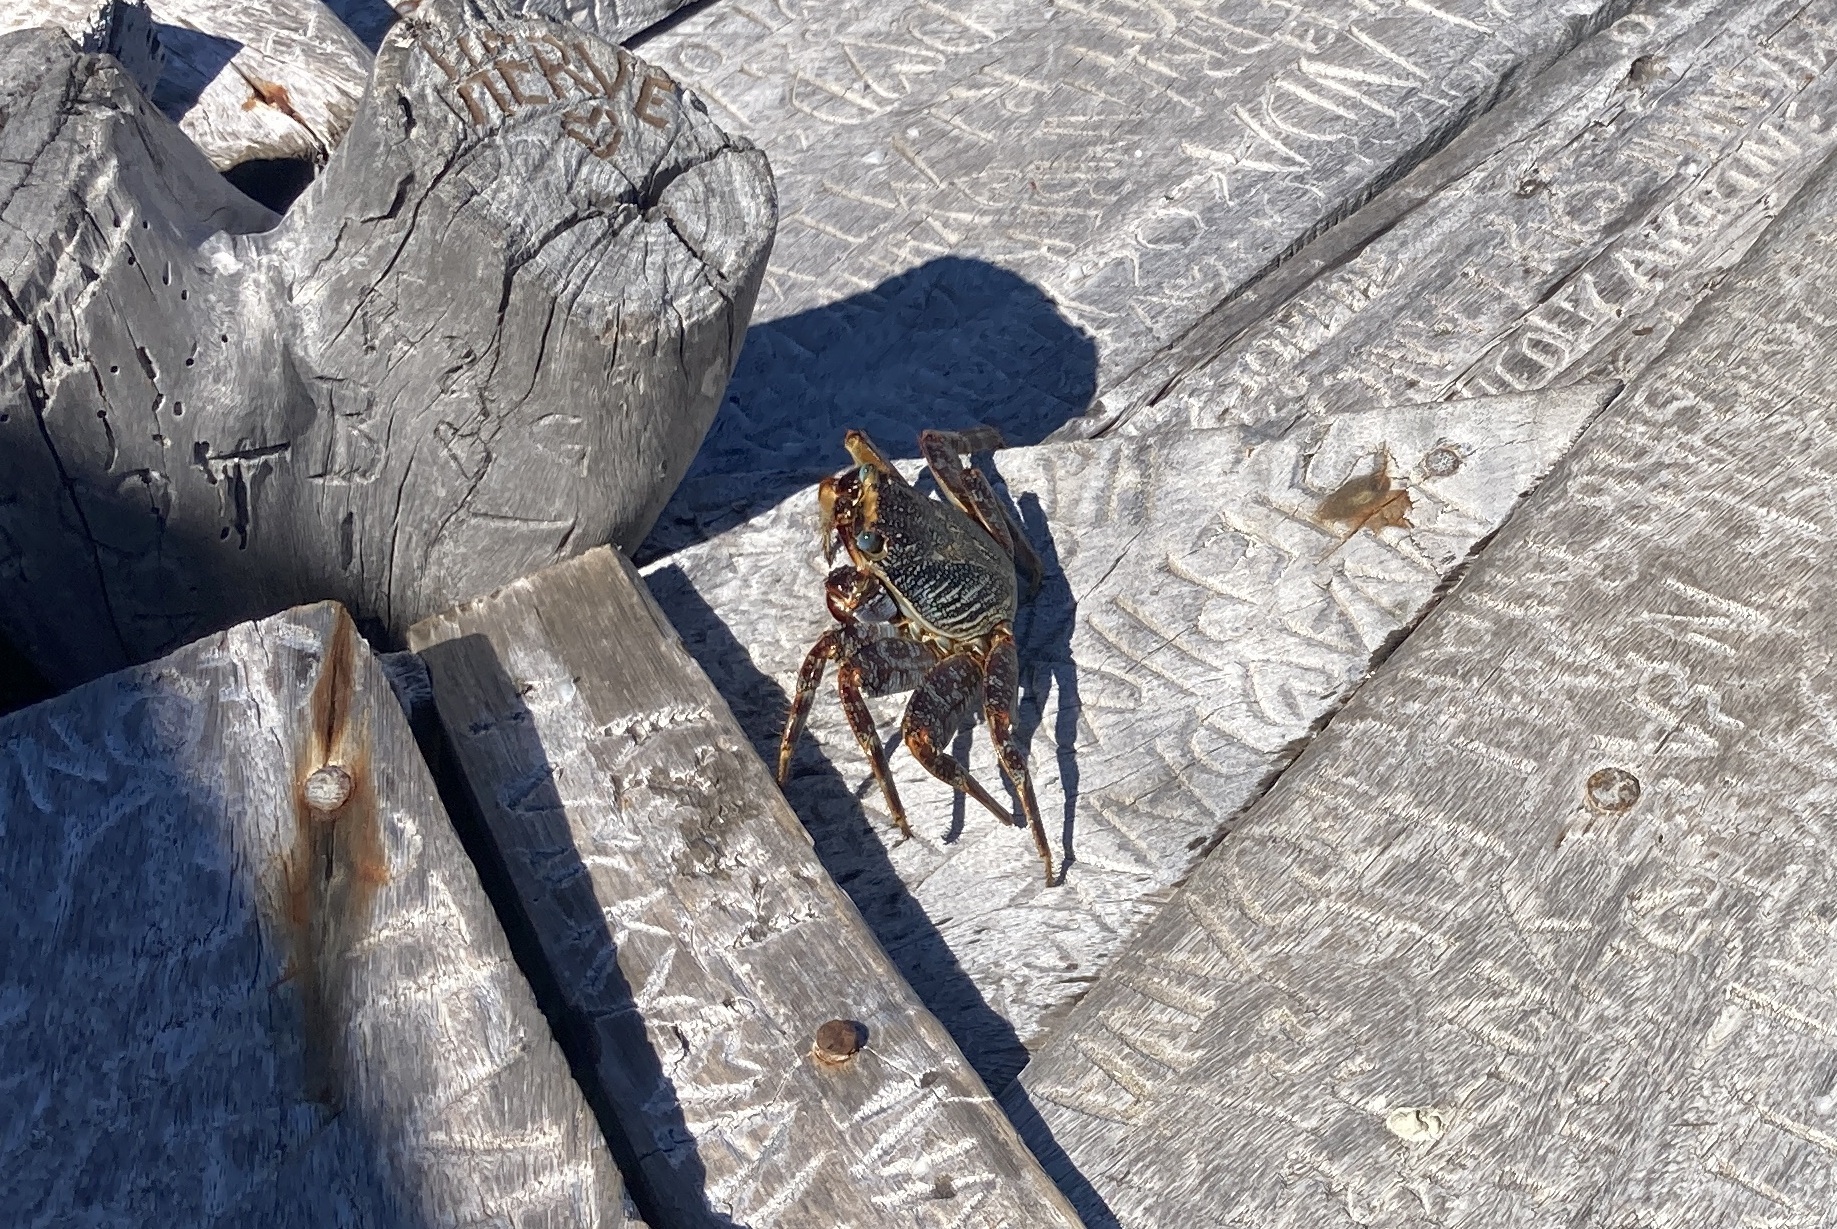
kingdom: Animalia
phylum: Arthropoda
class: Malacostraca
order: Decapoda
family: Grapsidae
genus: Grapsus
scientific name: Grapsus grapsus
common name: Sally lightfoot
